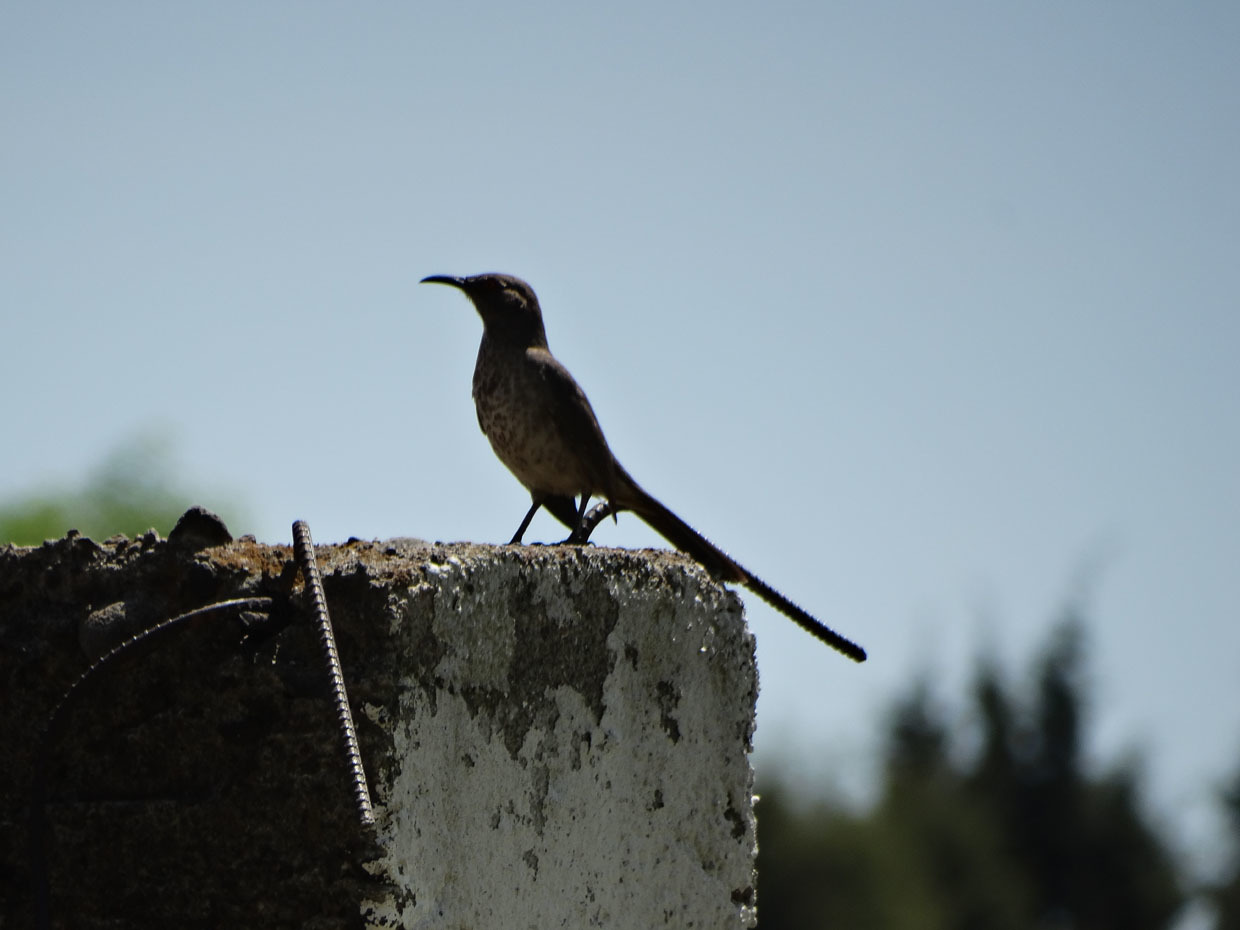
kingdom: Animalia
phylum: Chordata
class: Aves
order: Passeriformes
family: Mimidae
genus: Toxostoma
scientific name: Toxostoma curvirostre
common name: Curve-billed thrasher
